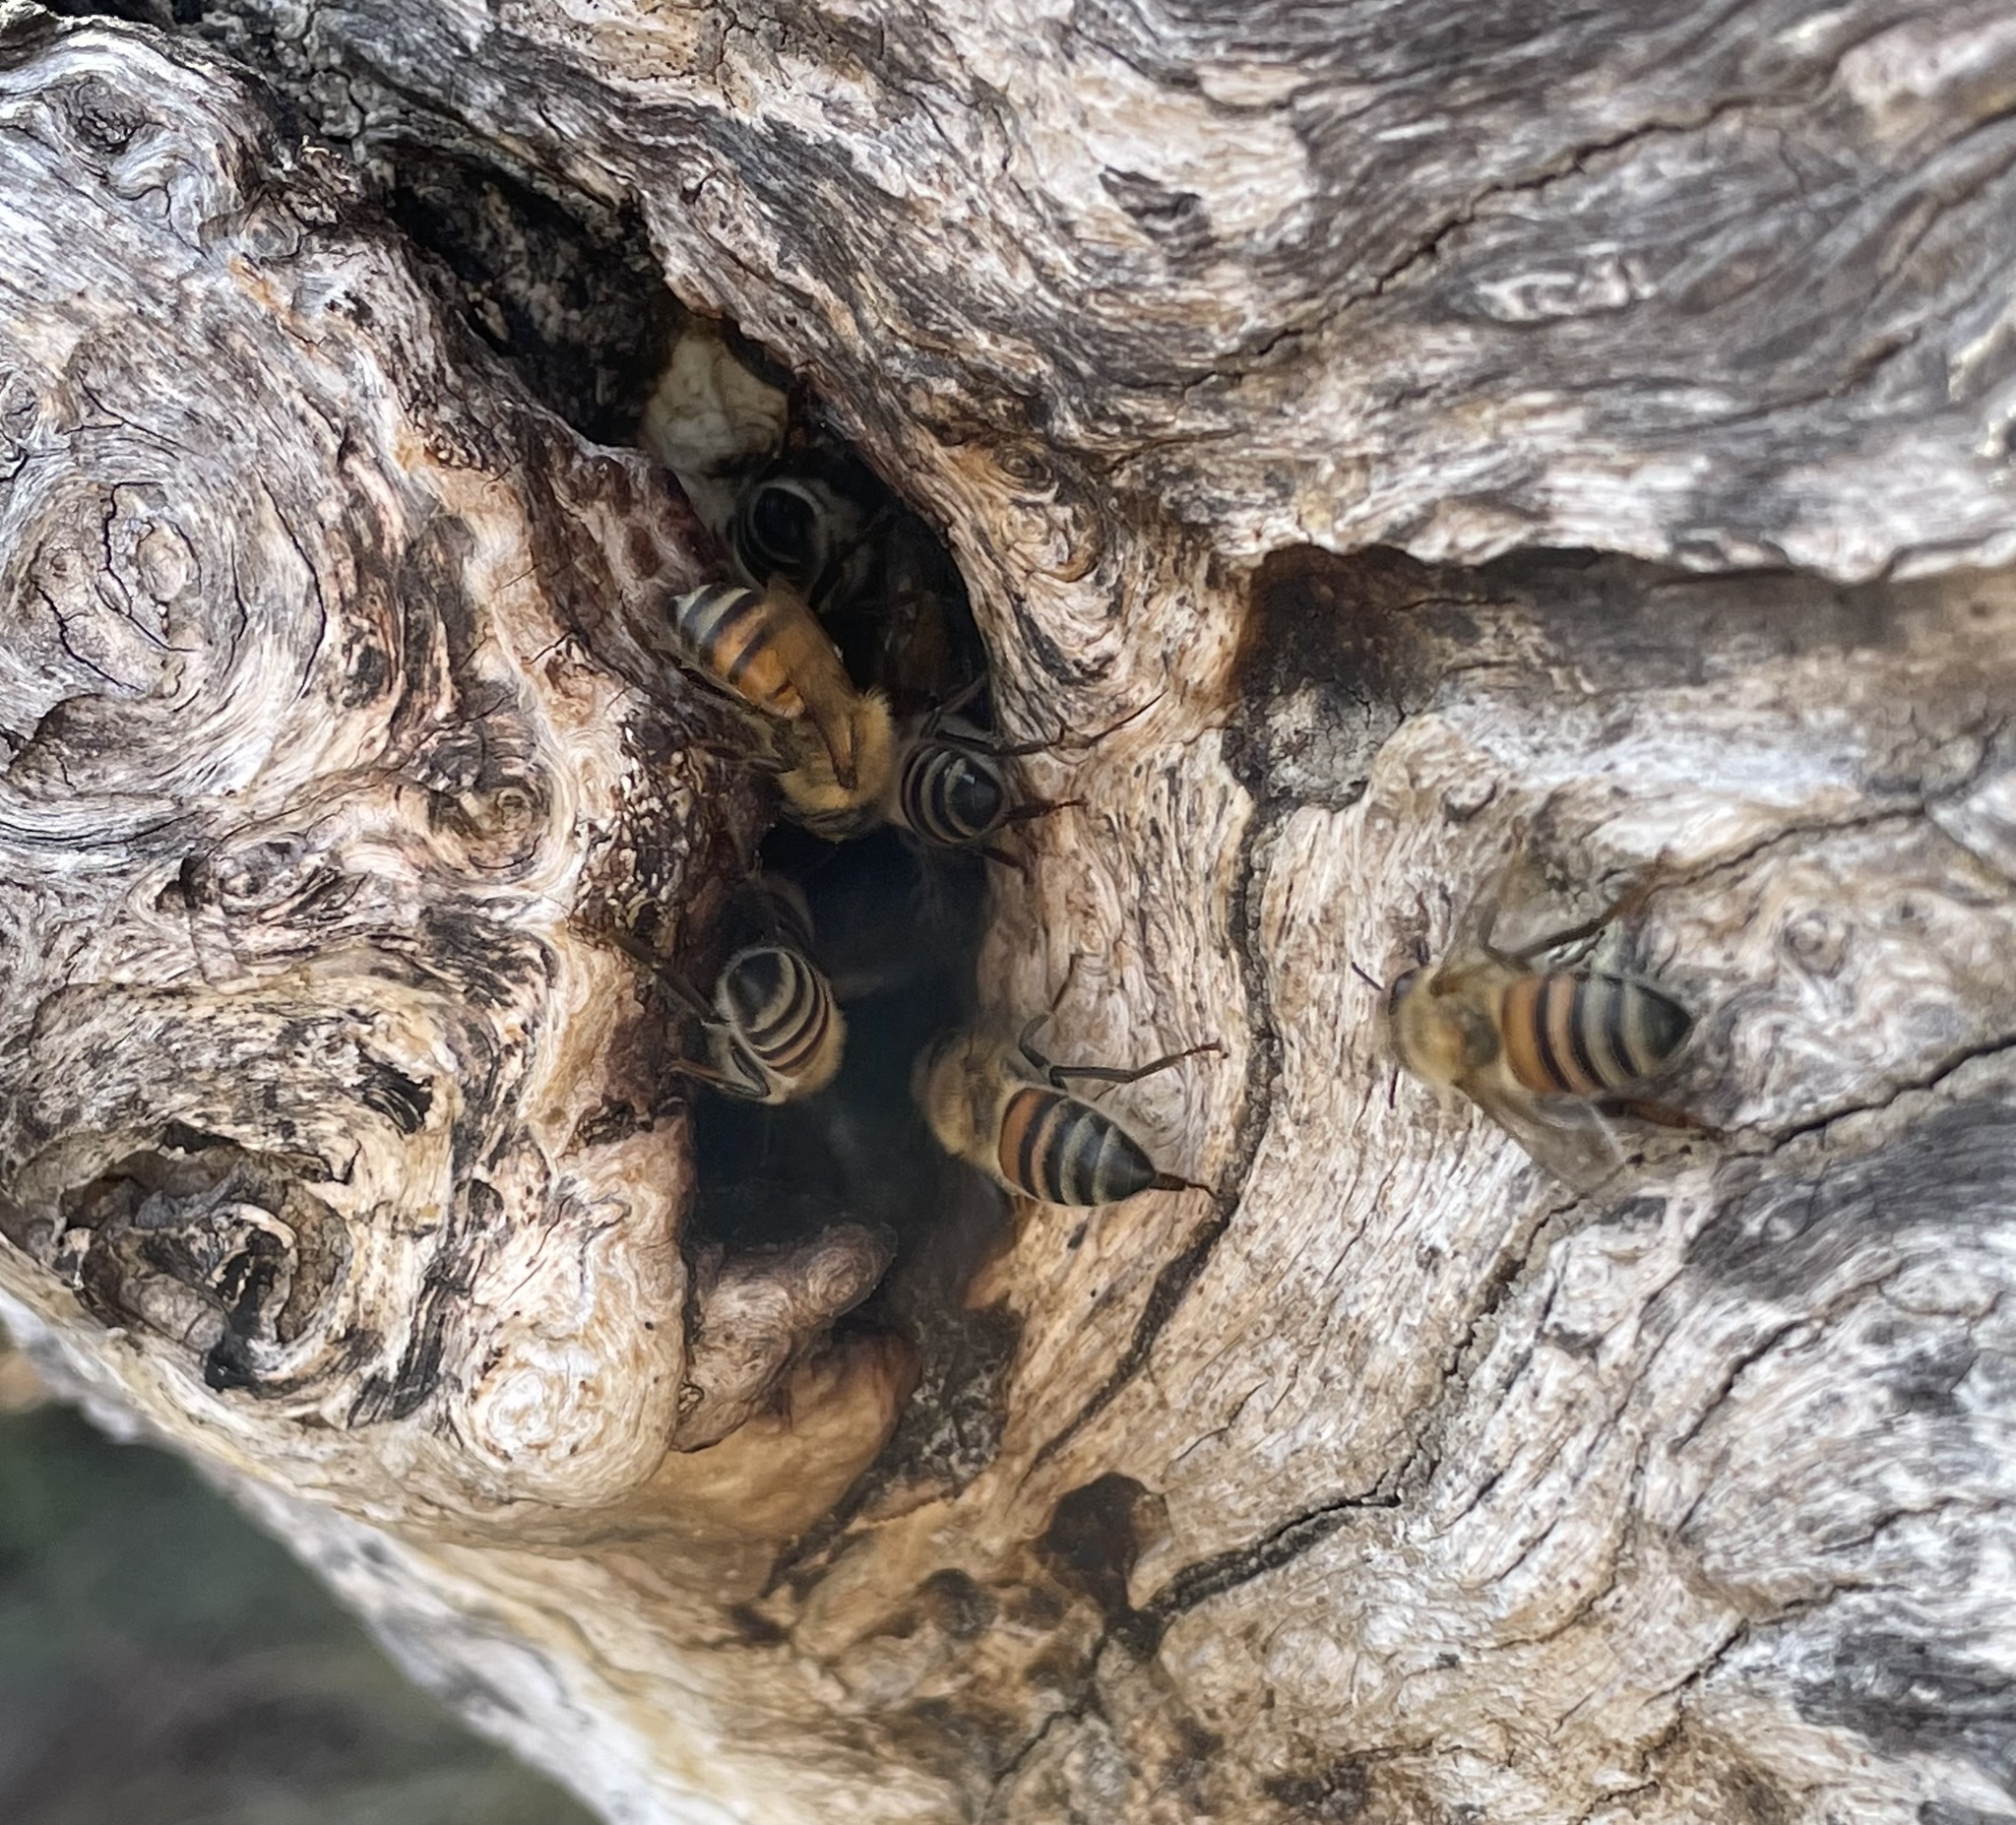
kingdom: Animalia
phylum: Arthropoda
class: Insecta
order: Hymenoptera
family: Apidae
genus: Apis
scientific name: Apis mellifera
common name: Honey bee
